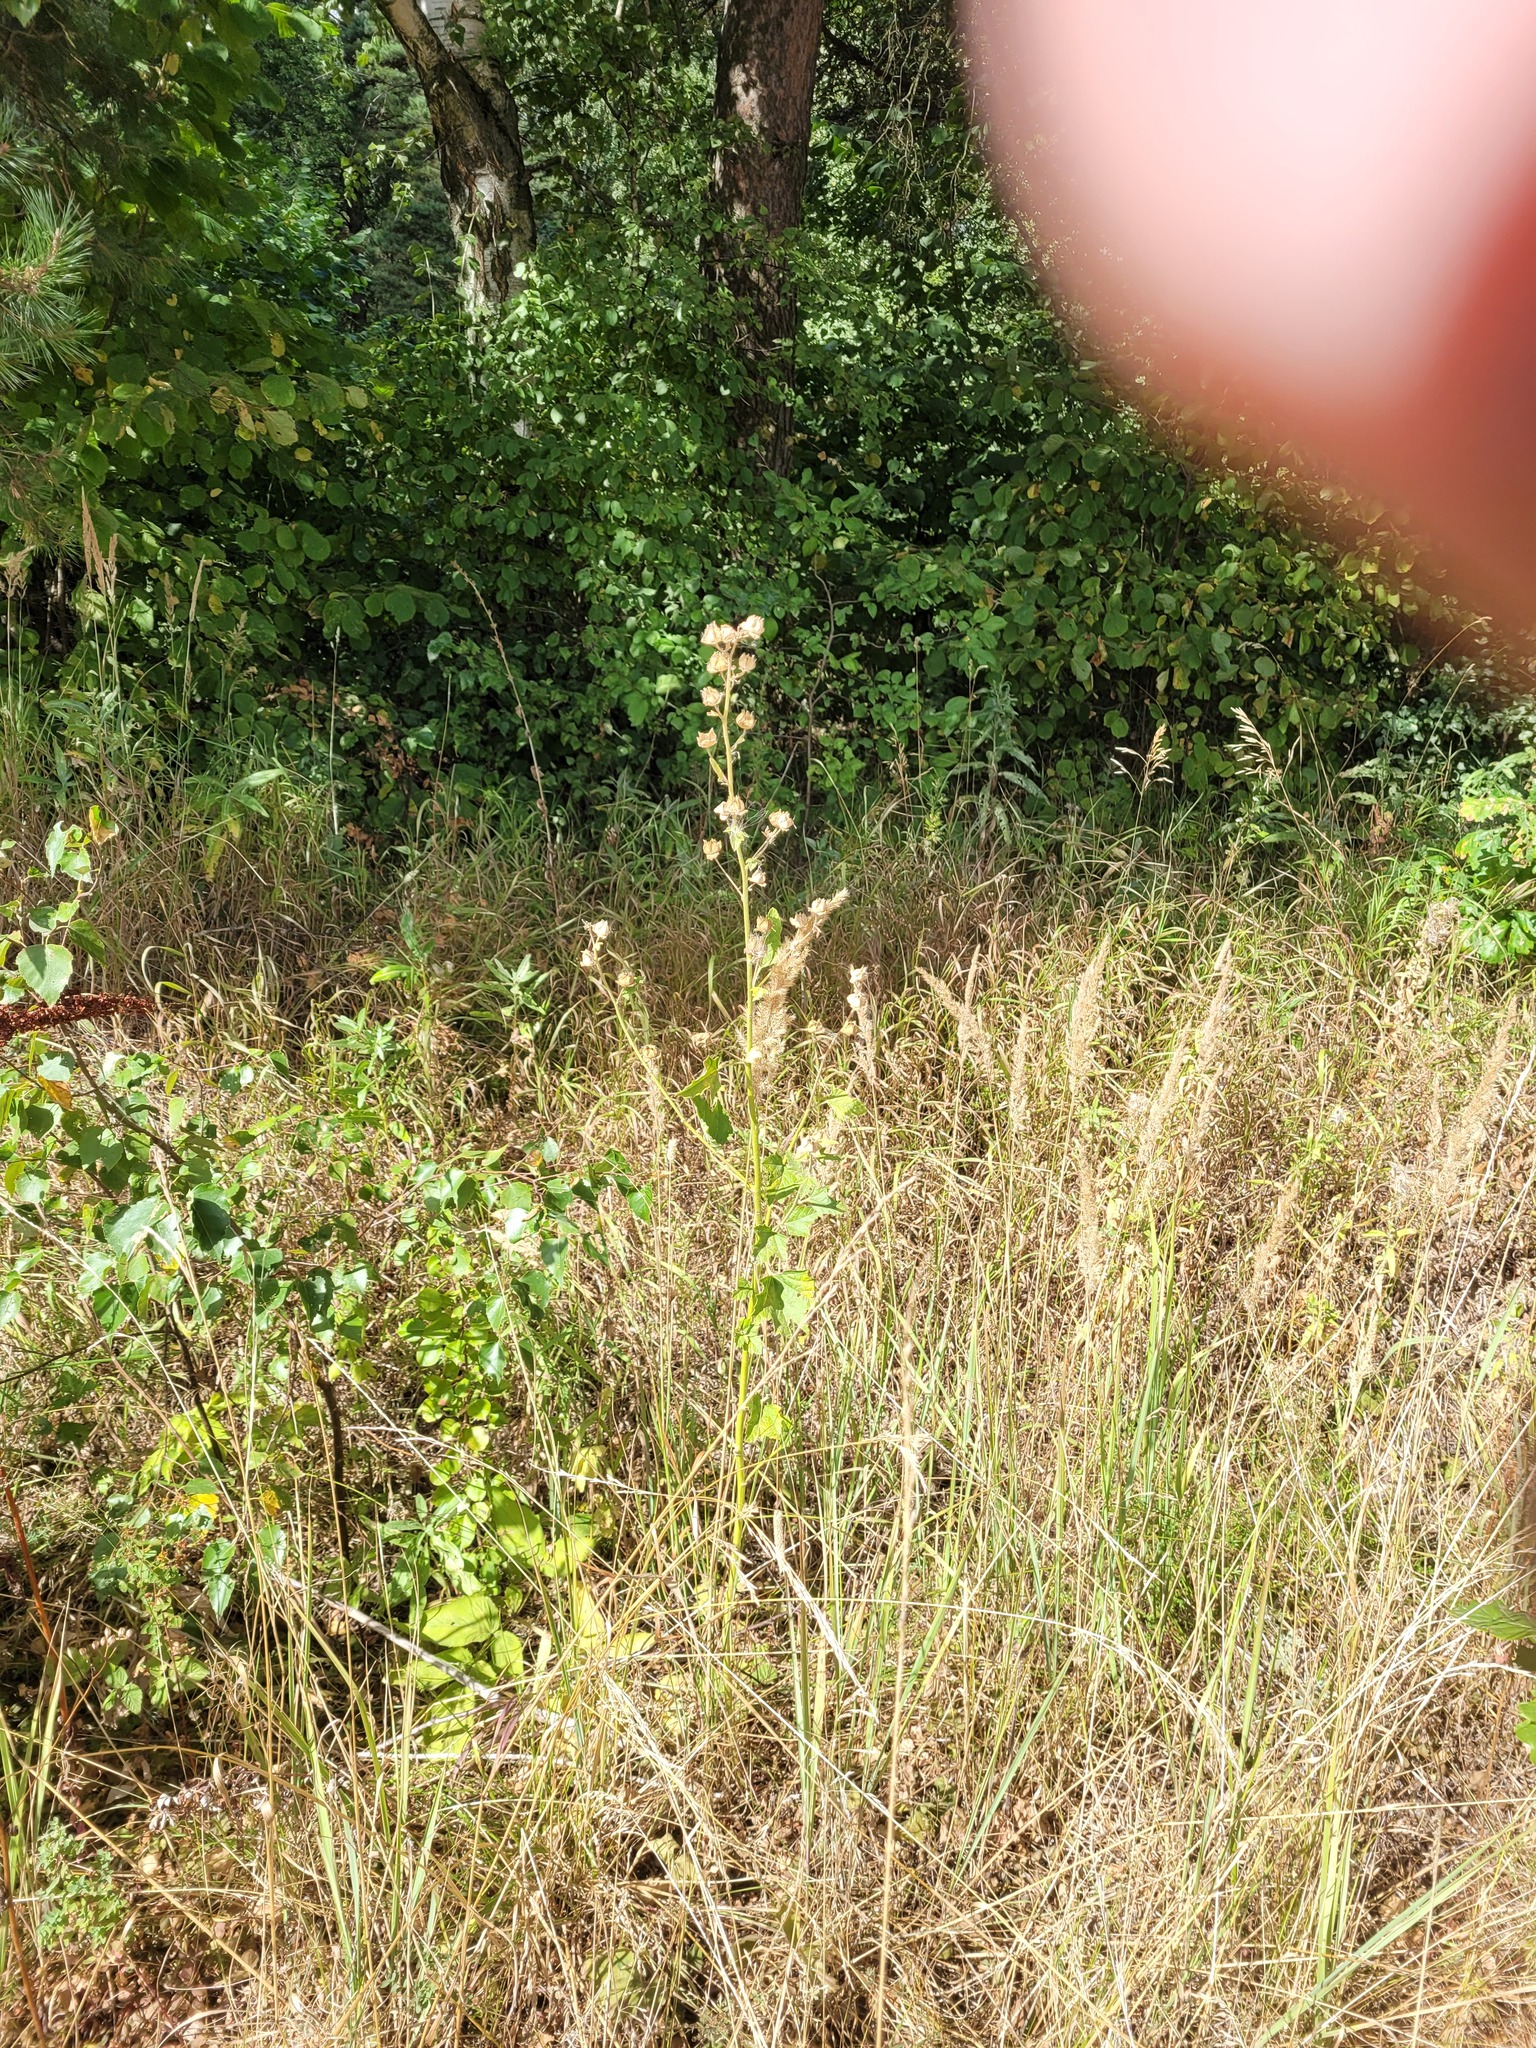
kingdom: Plantae
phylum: Tracheophyta
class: Magnoliopsida
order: Malvales
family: Malvaceae
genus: Malva
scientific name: Malva thuringiaca
